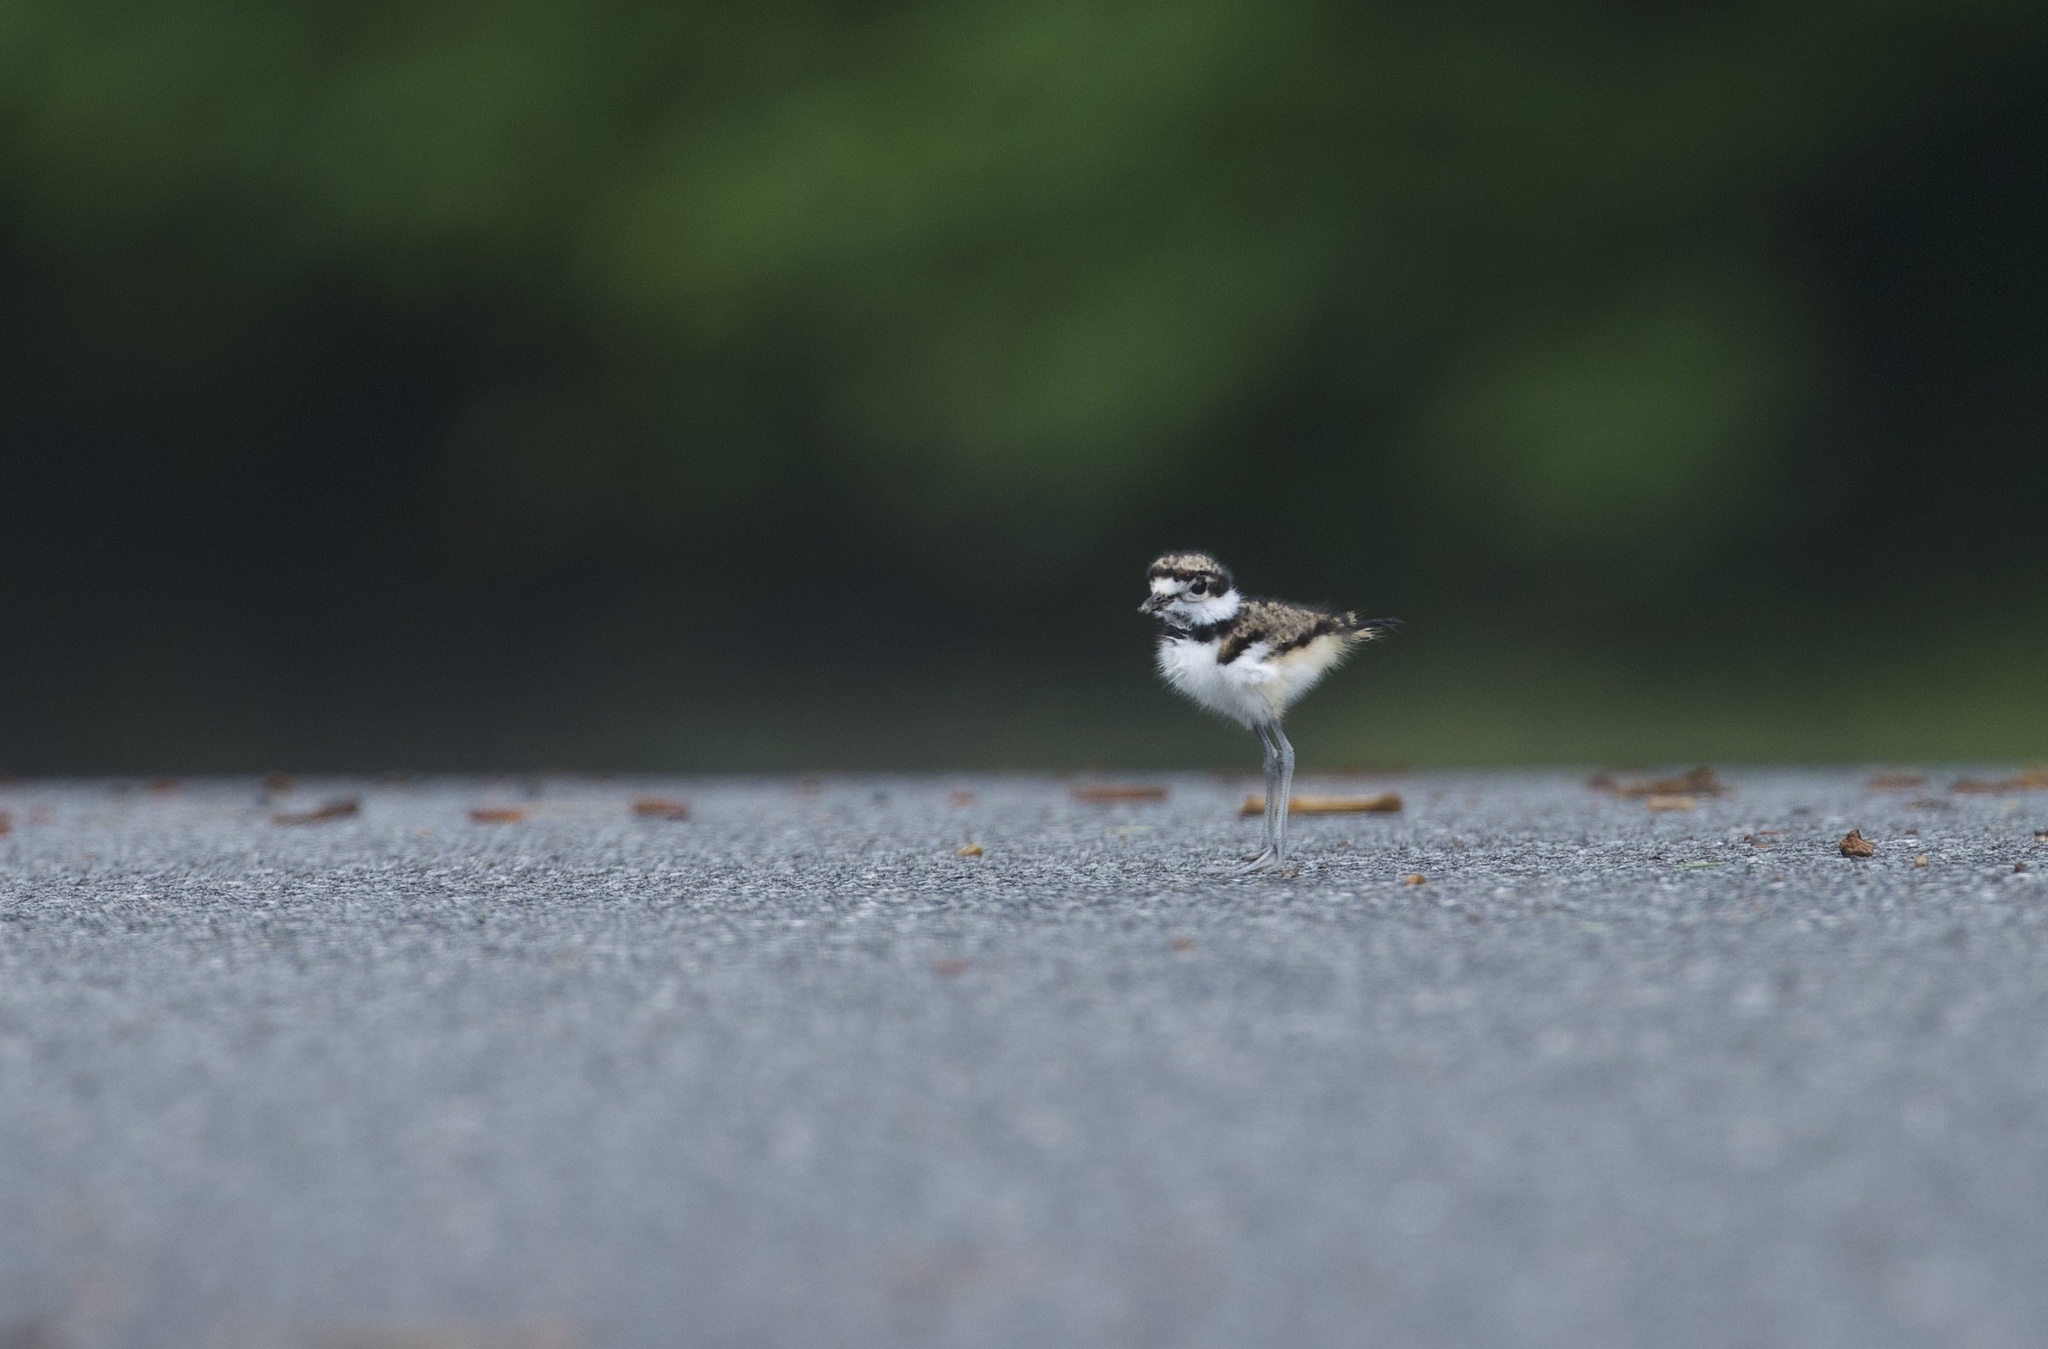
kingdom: Animalia
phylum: Chordata
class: Aves
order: Charadriiformes
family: Charadriidae
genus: Charadrius
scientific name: Charadrius vociferus
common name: Killdeer
